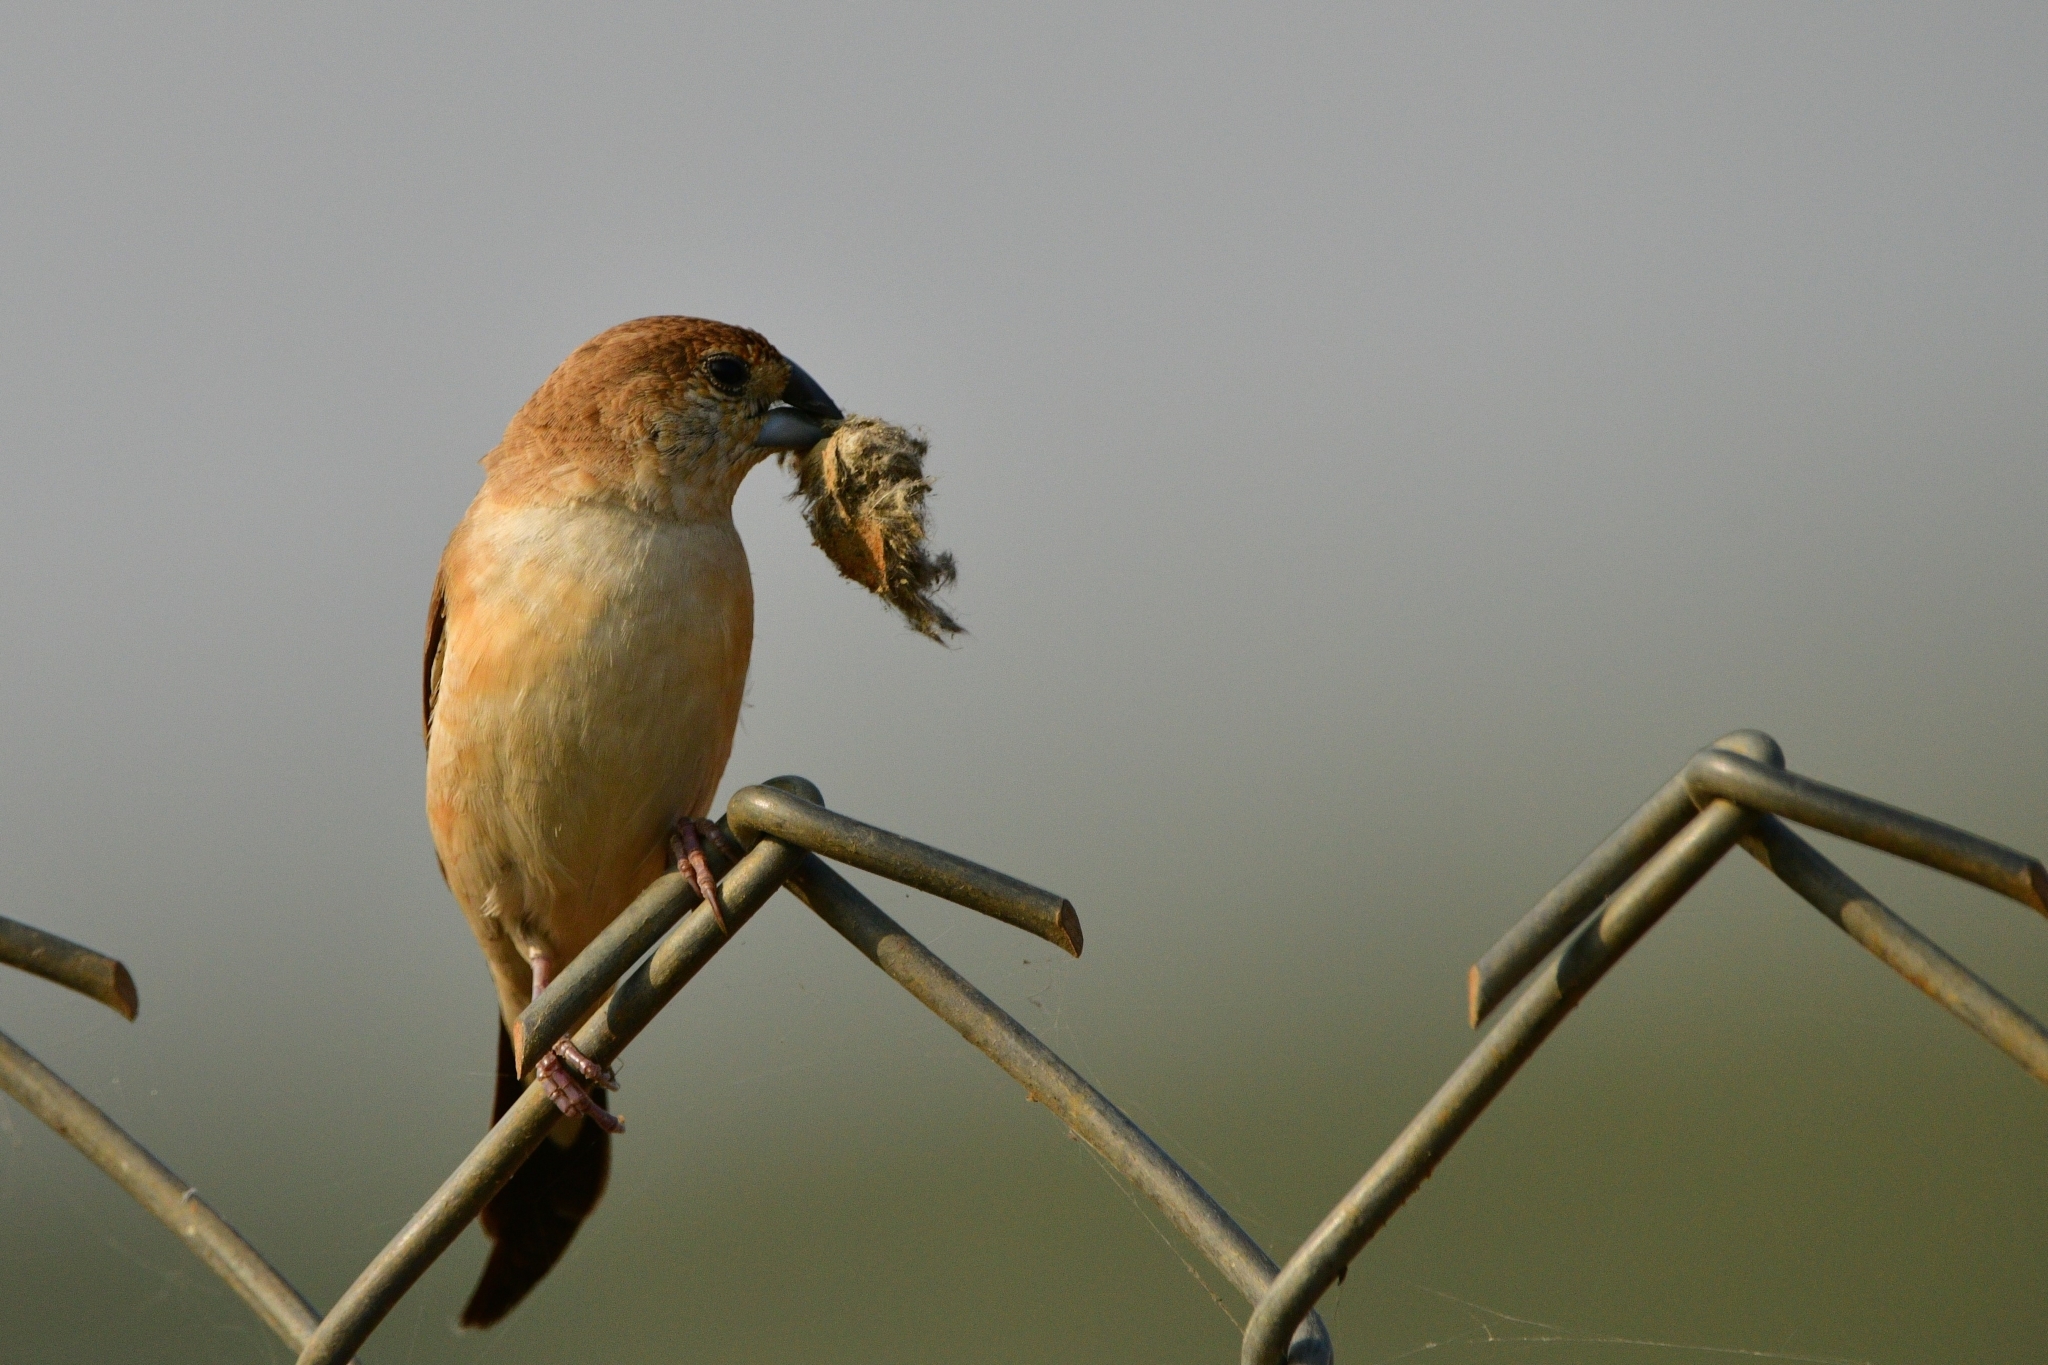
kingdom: Animalia
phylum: Chordata
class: Aves
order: Passeriformes
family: Estrildidae
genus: Euodice
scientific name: Euodice malabarica
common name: Indian silverbill
